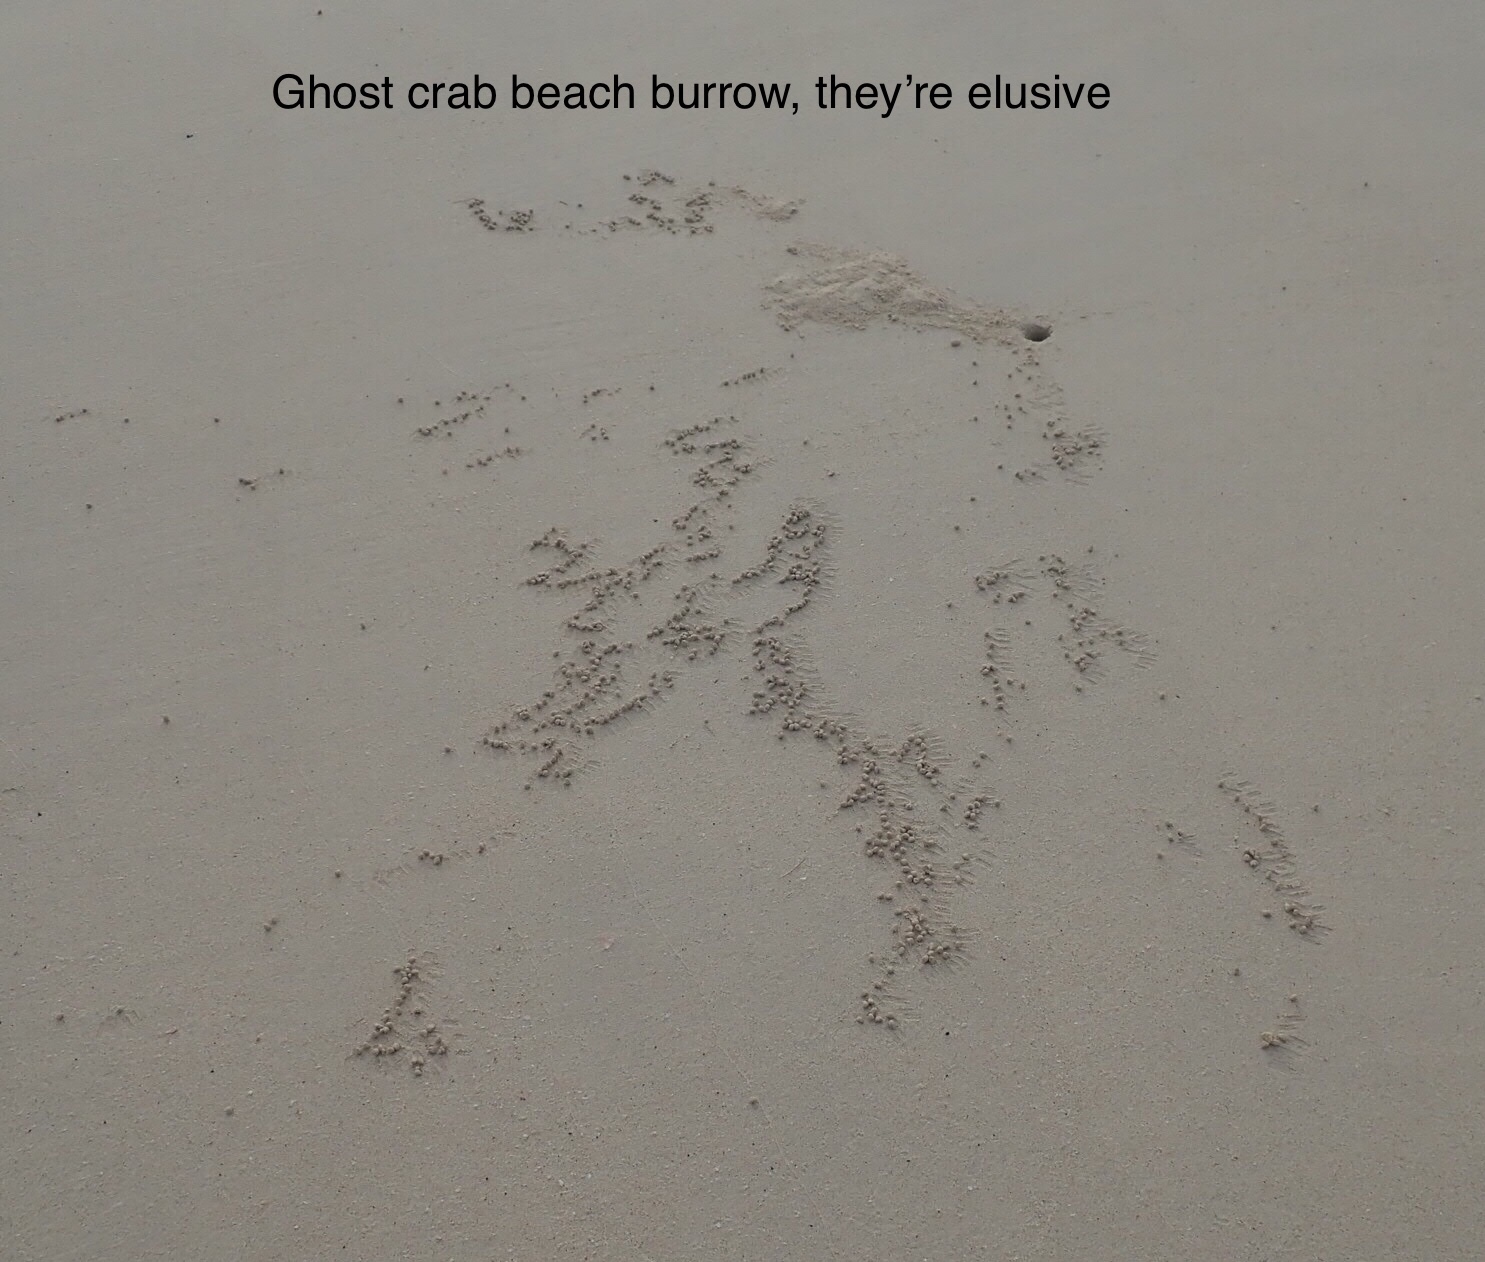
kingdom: Animalia
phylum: Arthropoda
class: Malacostraca
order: Decapoda
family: Ocypodidae
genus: Ocypode
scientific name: Ocypode gaudichaudii
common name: Pacific ghost crab
